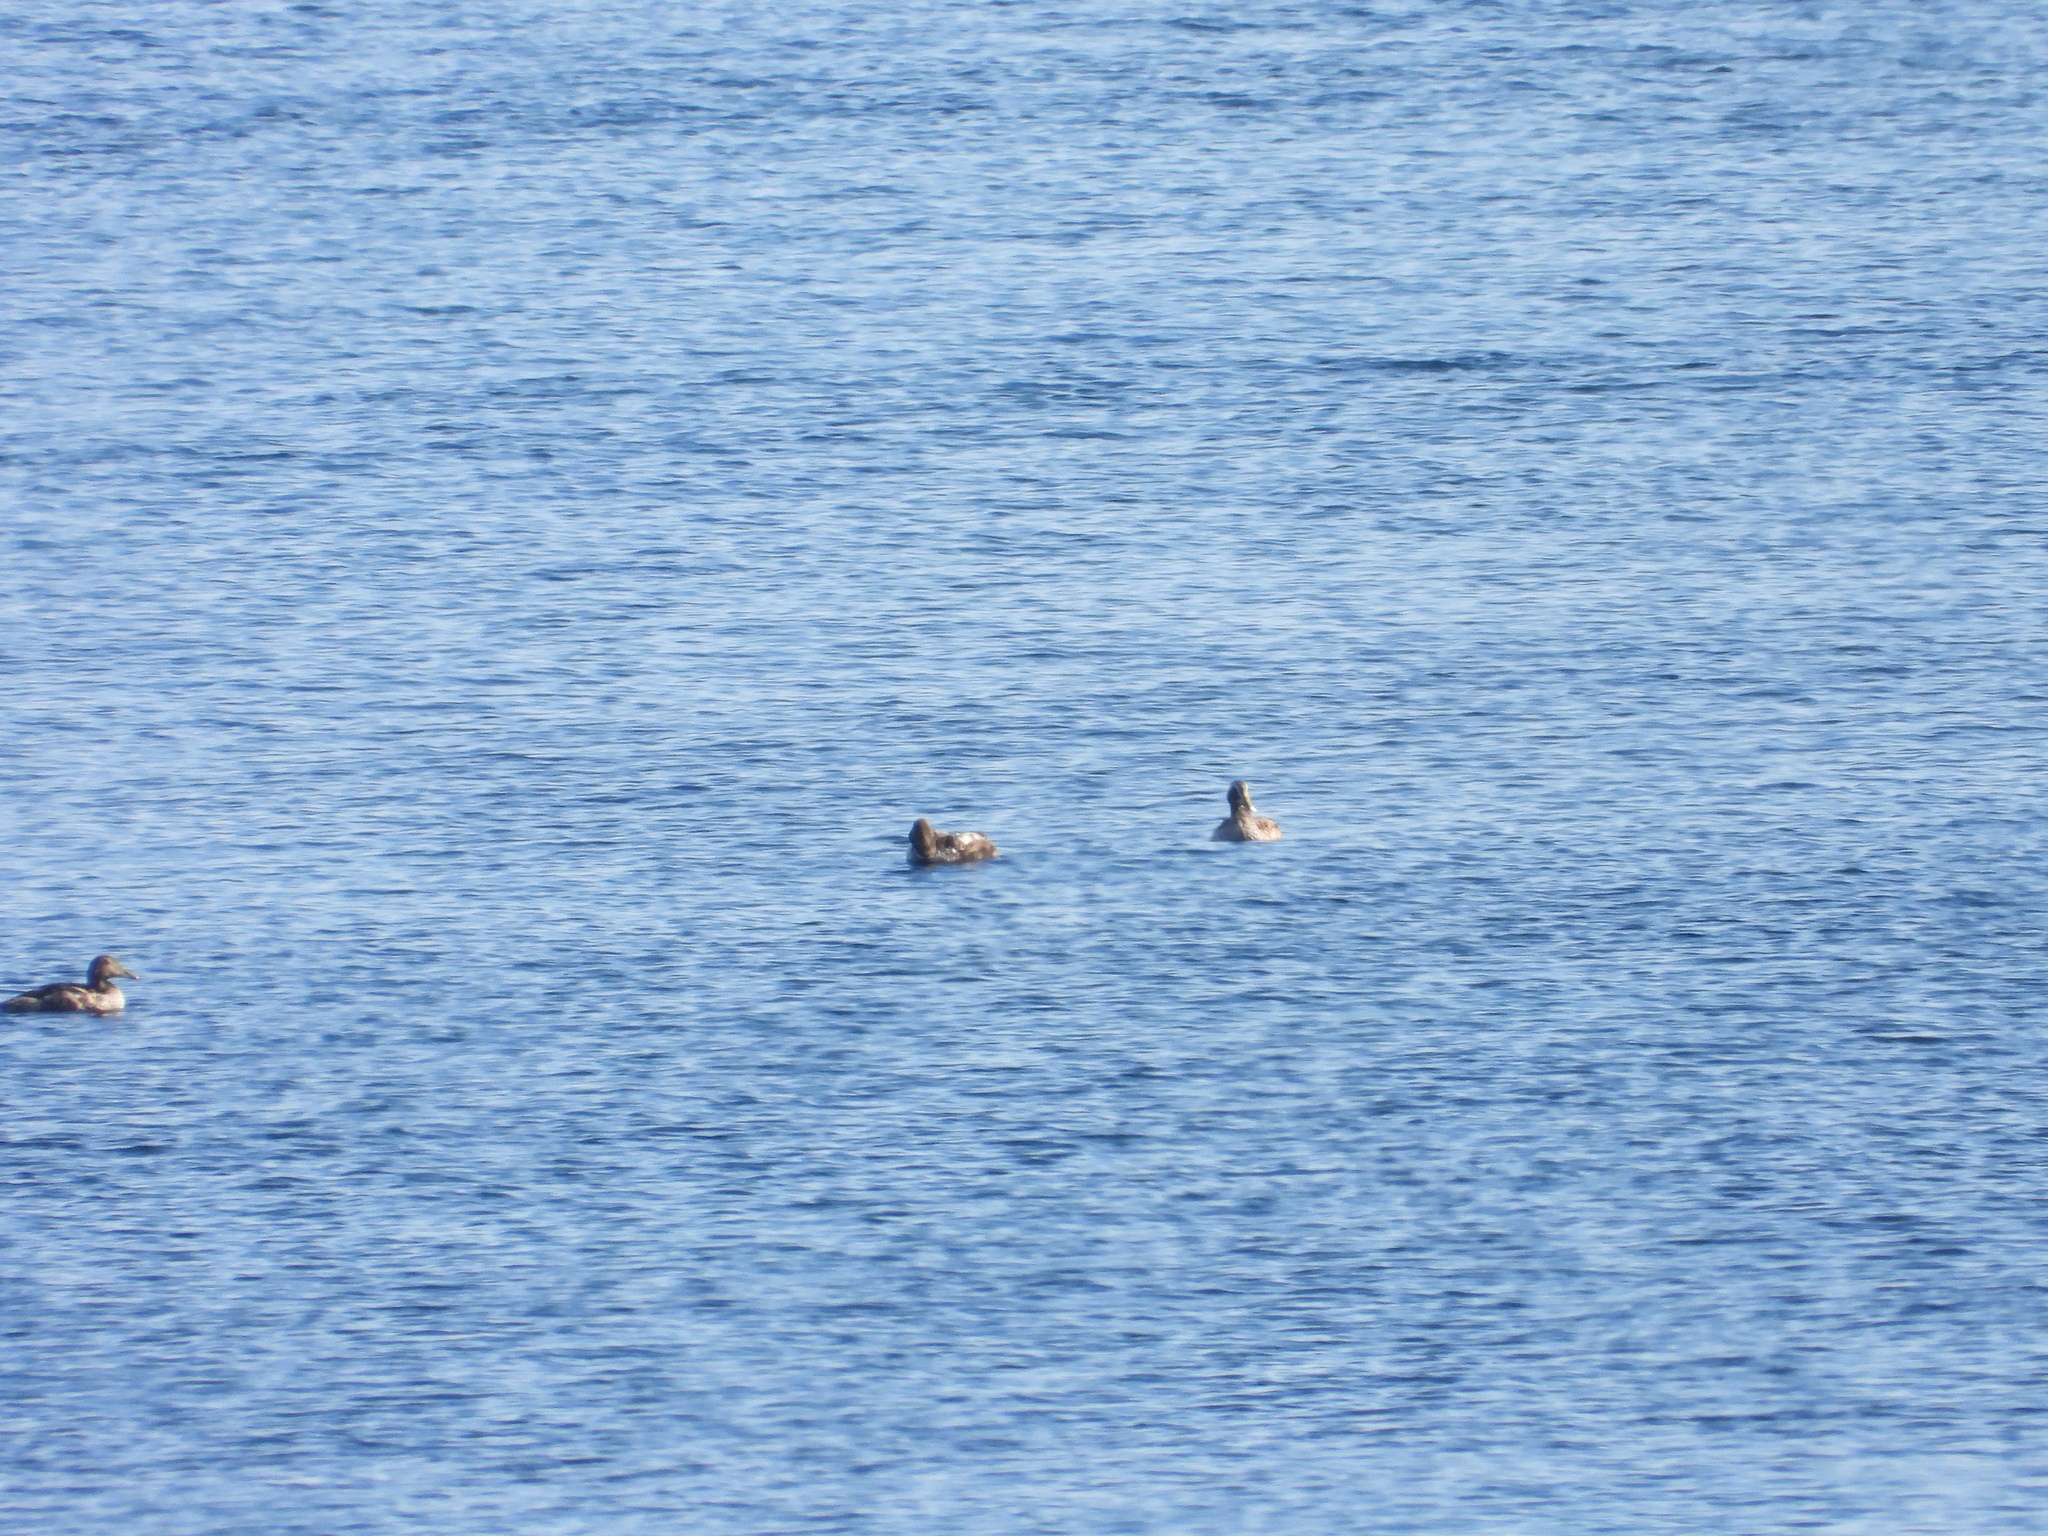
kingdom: Animalia
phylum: Chordata
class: Aves
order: Anseriformes
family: Anatidae
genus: Somateria
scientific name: Somateria mollissima
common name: Common eider
